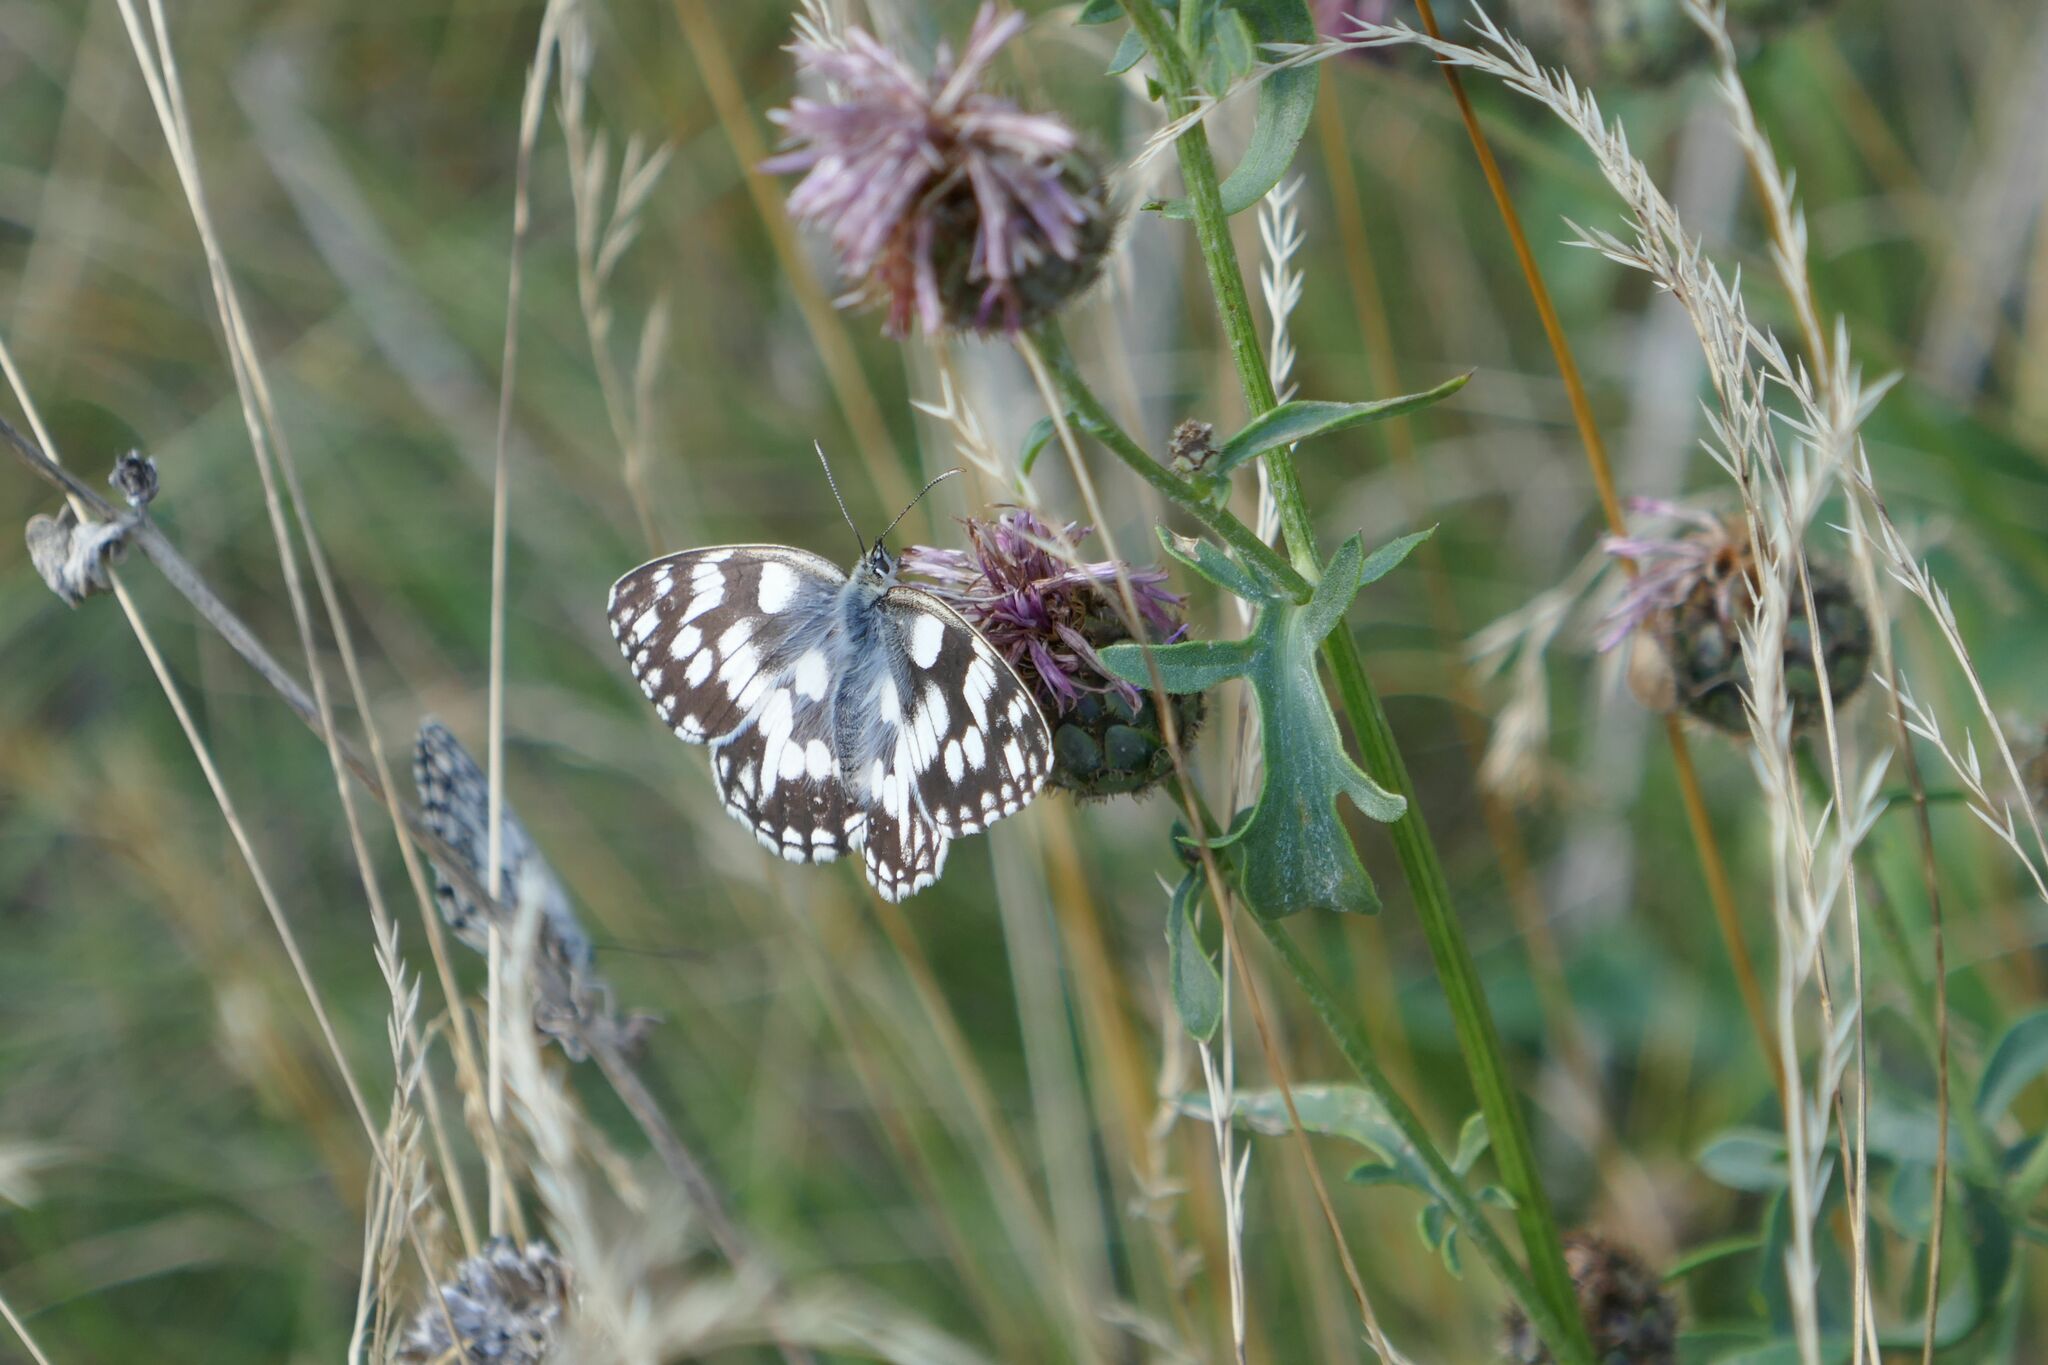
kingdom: Animalia
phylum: Arthropoda
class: Insecta
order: Lepidoptera
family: Nymphalidae
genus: Melanargia
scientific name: Melanargia galathea
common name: Marbled white
